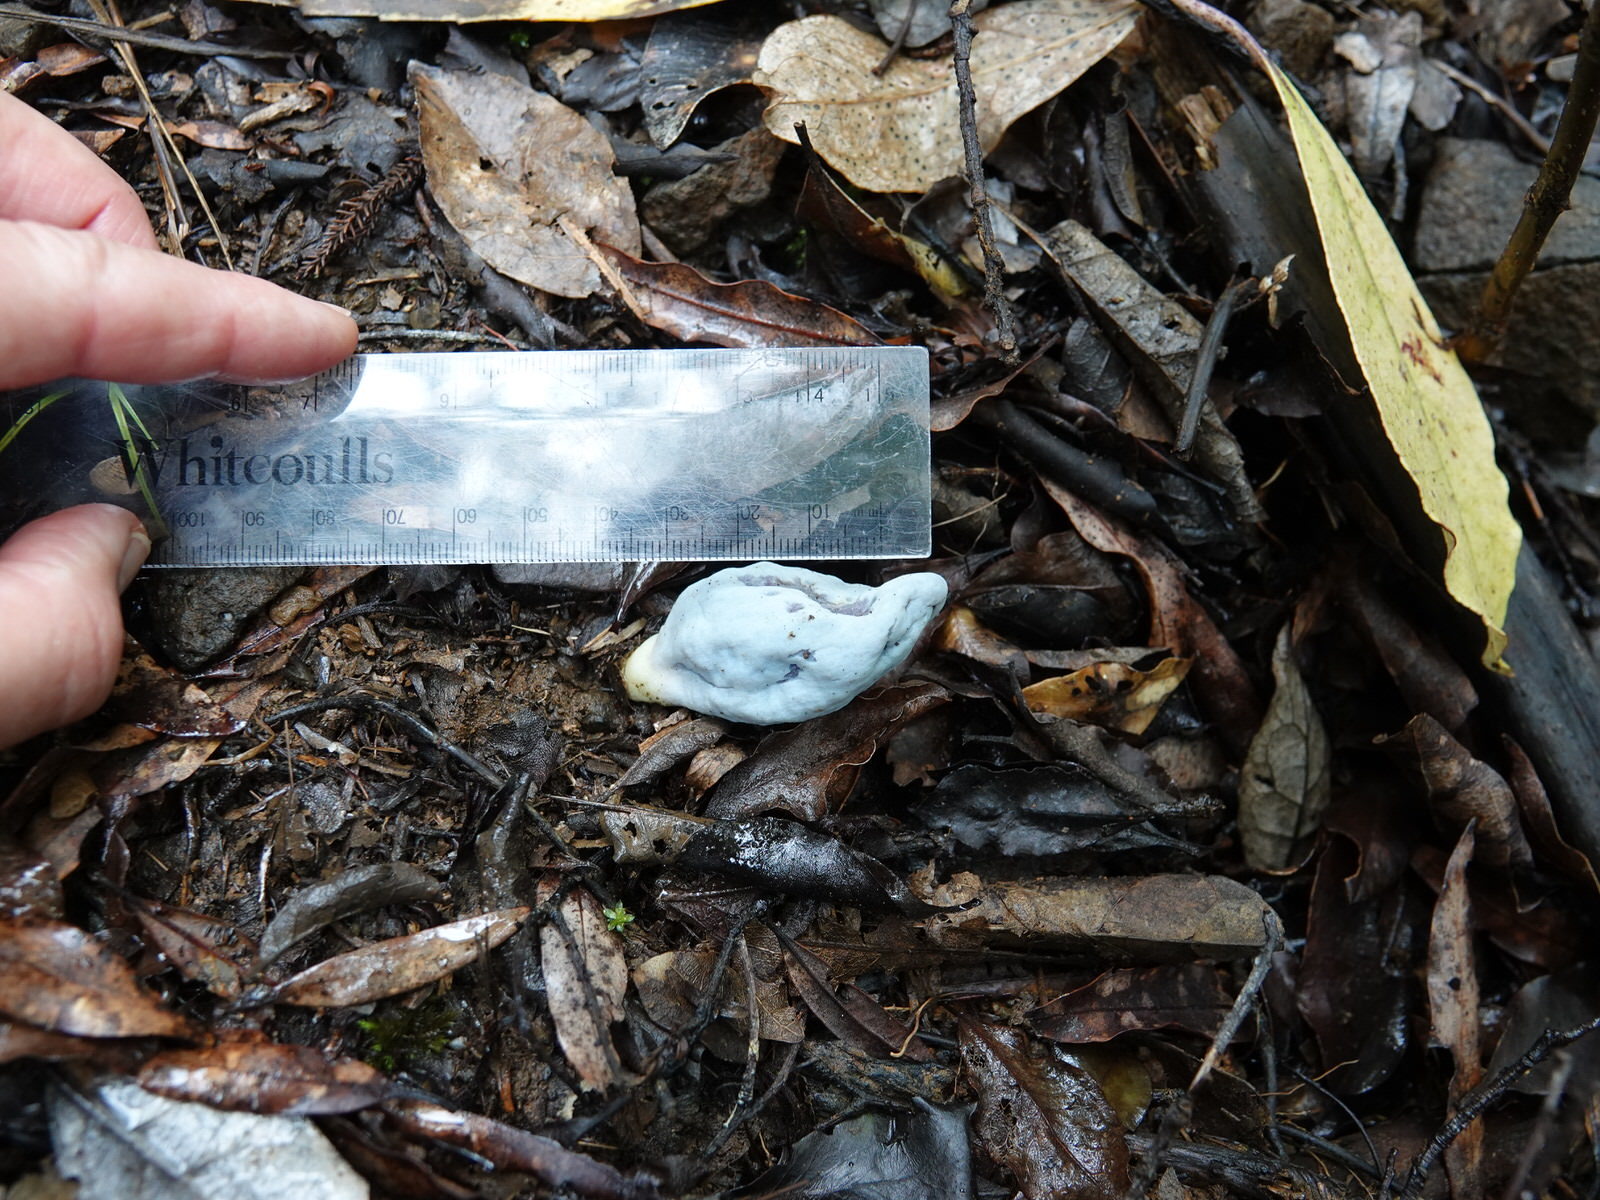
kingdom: Fungi
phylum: Basidiomycota
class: Agaricomycetes
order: Agaricales
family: Agaricaceae
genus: Clavogaster
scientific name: Clavogaster virescens
